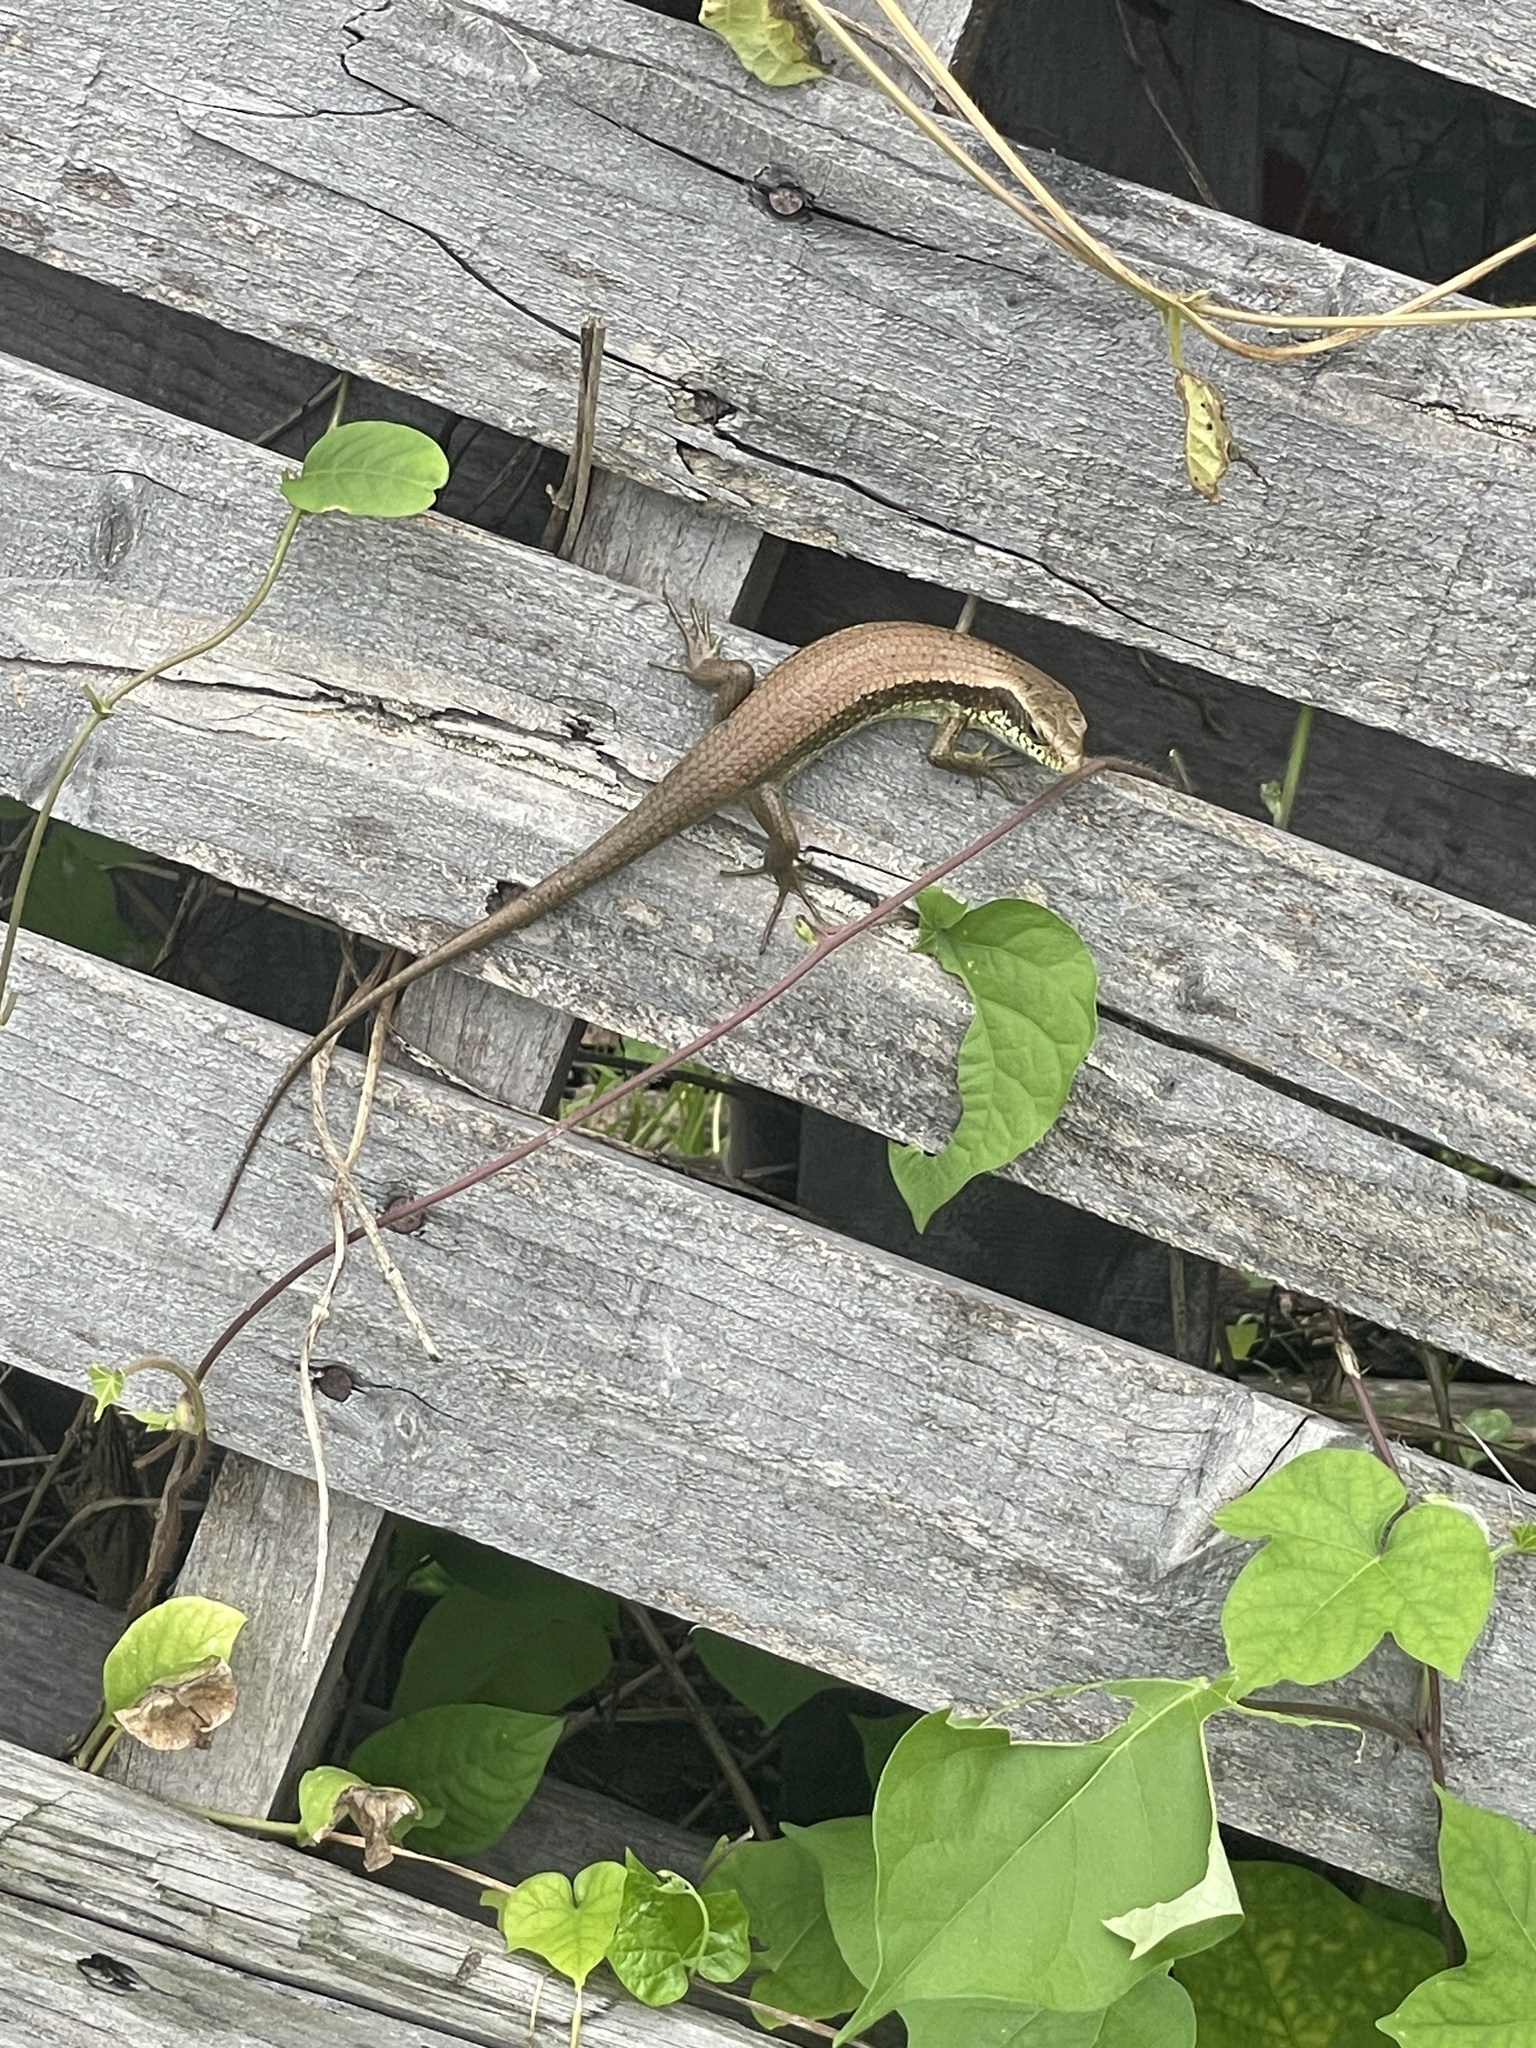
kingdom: Animalia
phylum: Chordata
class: Squamata
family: Scincidae
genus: Eutropis
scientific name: Eutropis longicaudata
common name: Long-tailed sun skink
